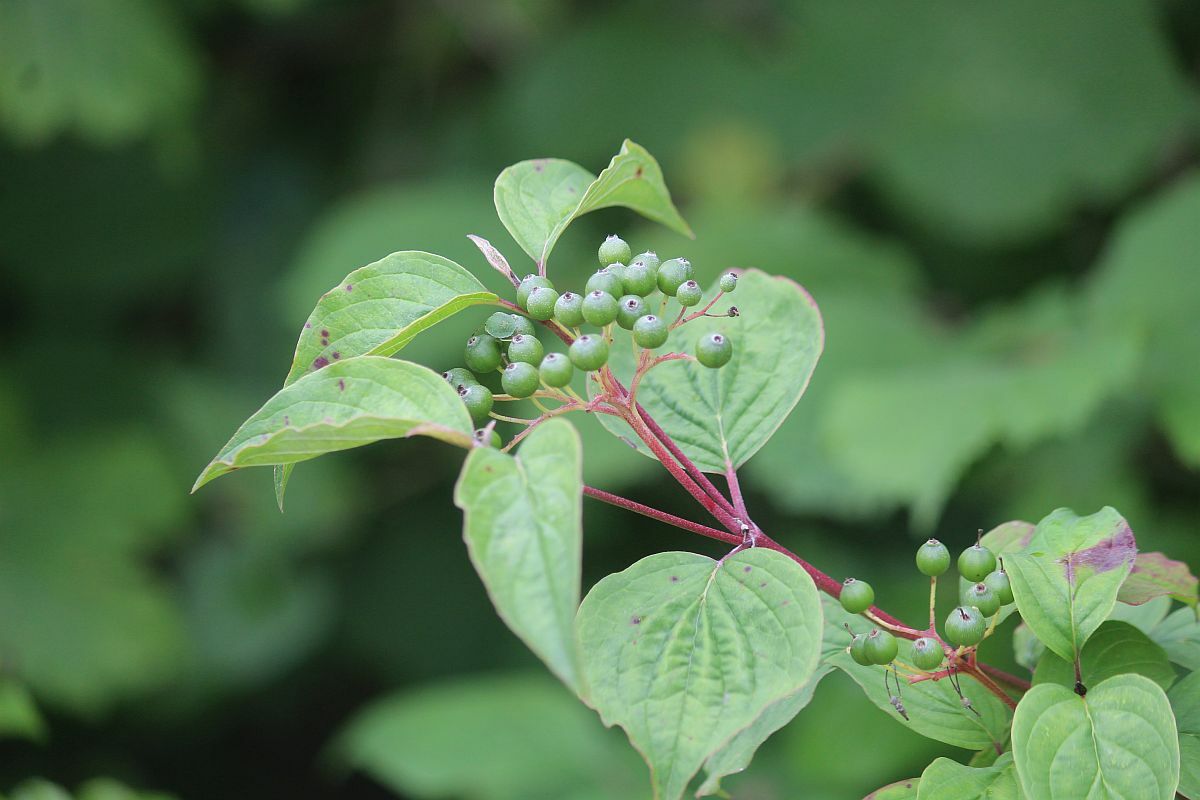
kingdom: Plantae
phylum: Tracheophyta
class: Magnoliopsida
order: Cornales
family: Cornaceae
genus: Cornus
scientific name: Cornus sanguinea
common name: Dogwood
